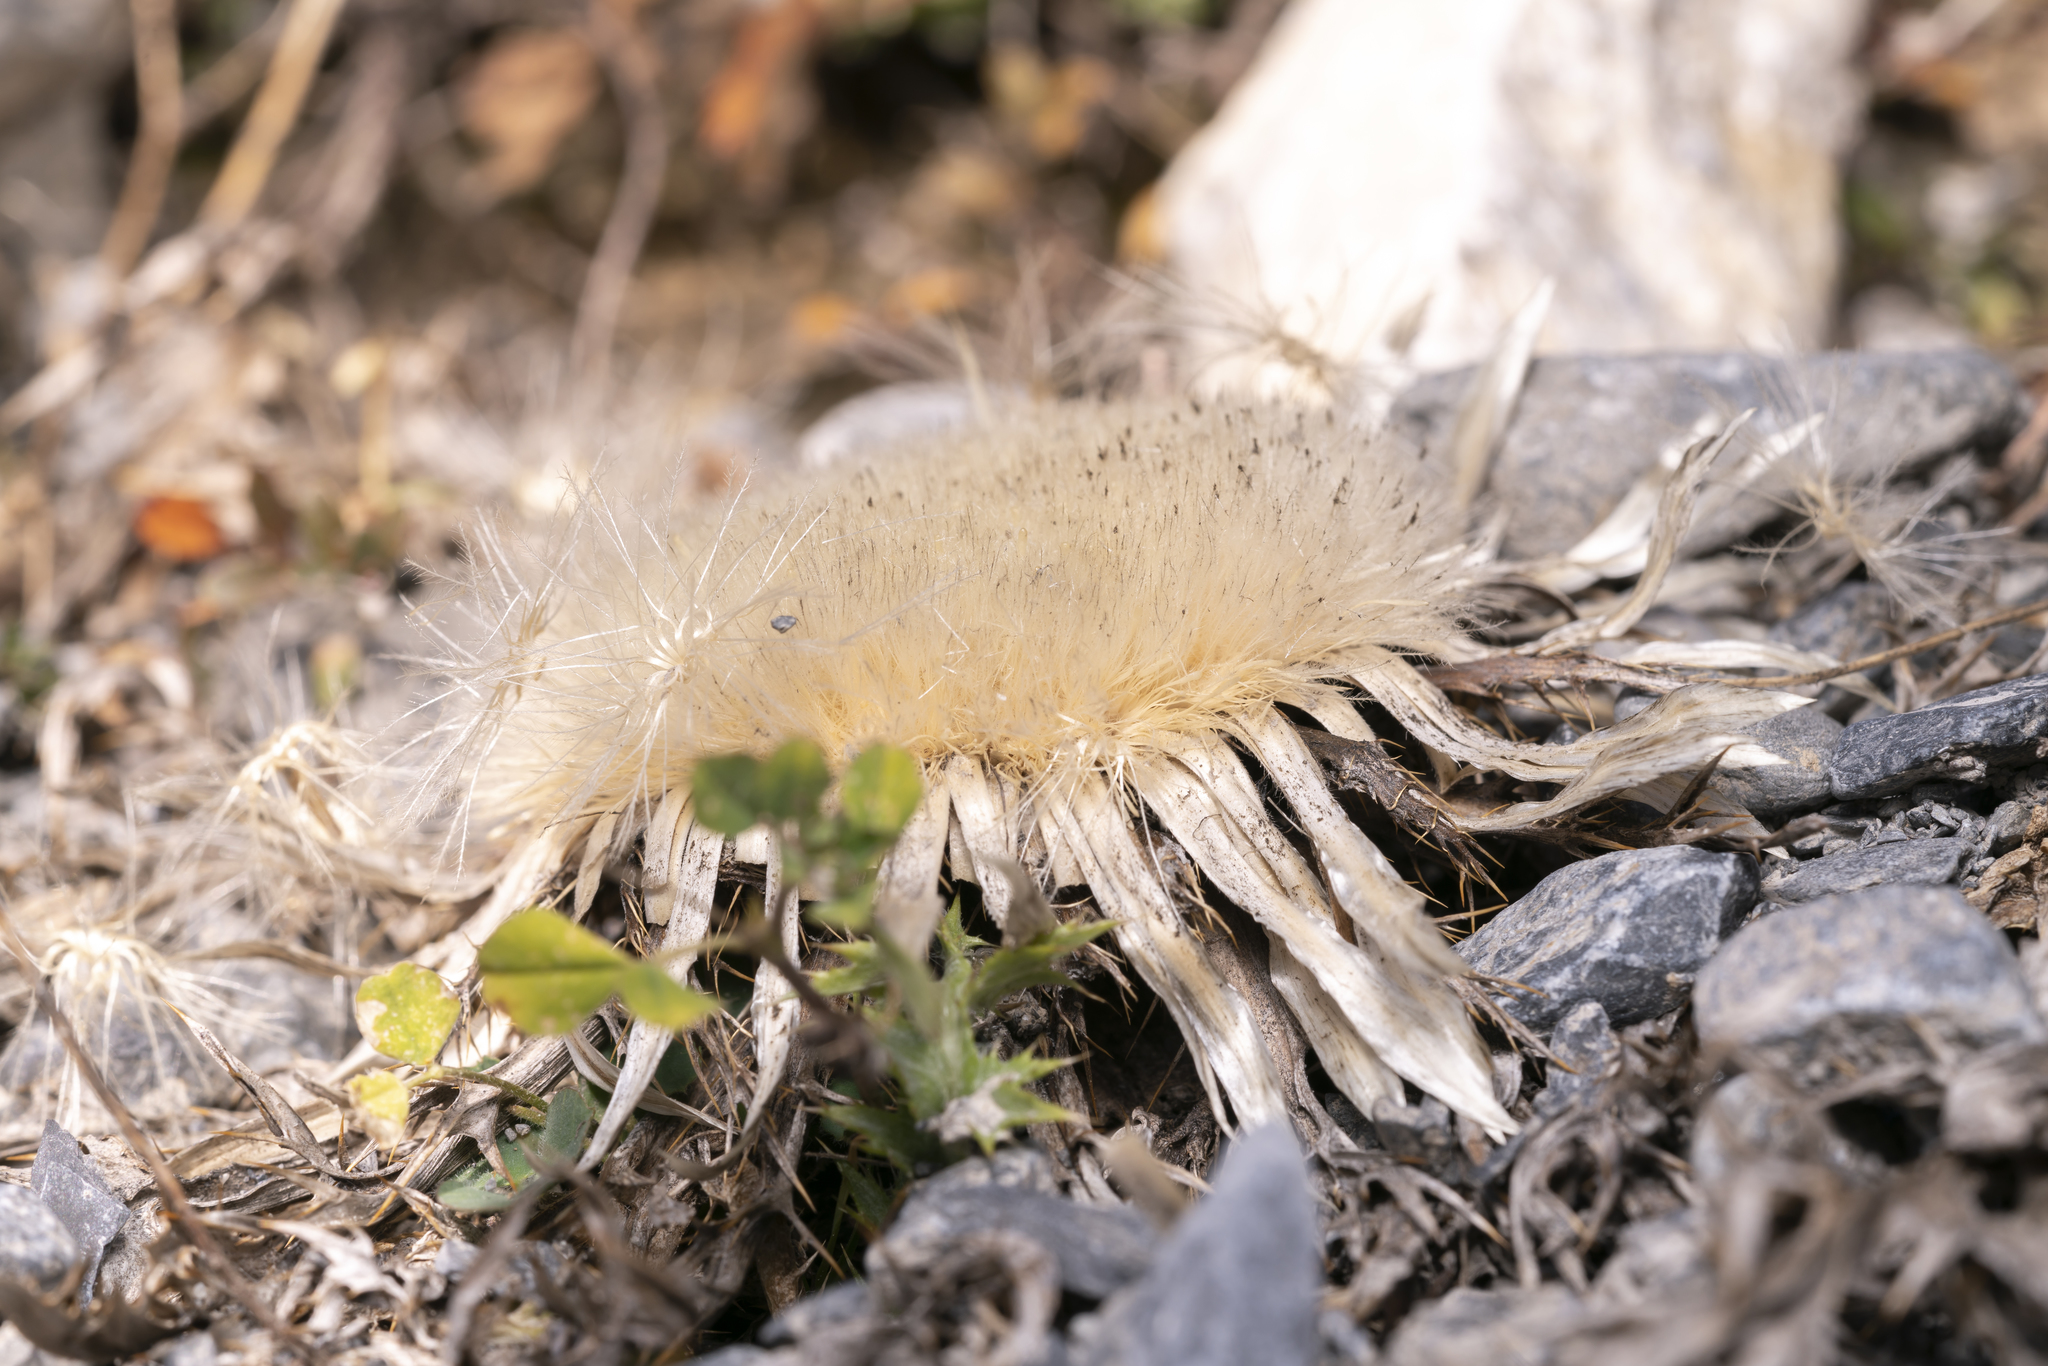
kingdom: Plantae
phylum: Tracheophyta
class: Magnoliopsida
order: Asterales
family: Asteraceae
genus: Carlina
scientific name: Carlina acaulis
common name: Stemless carline thistle
